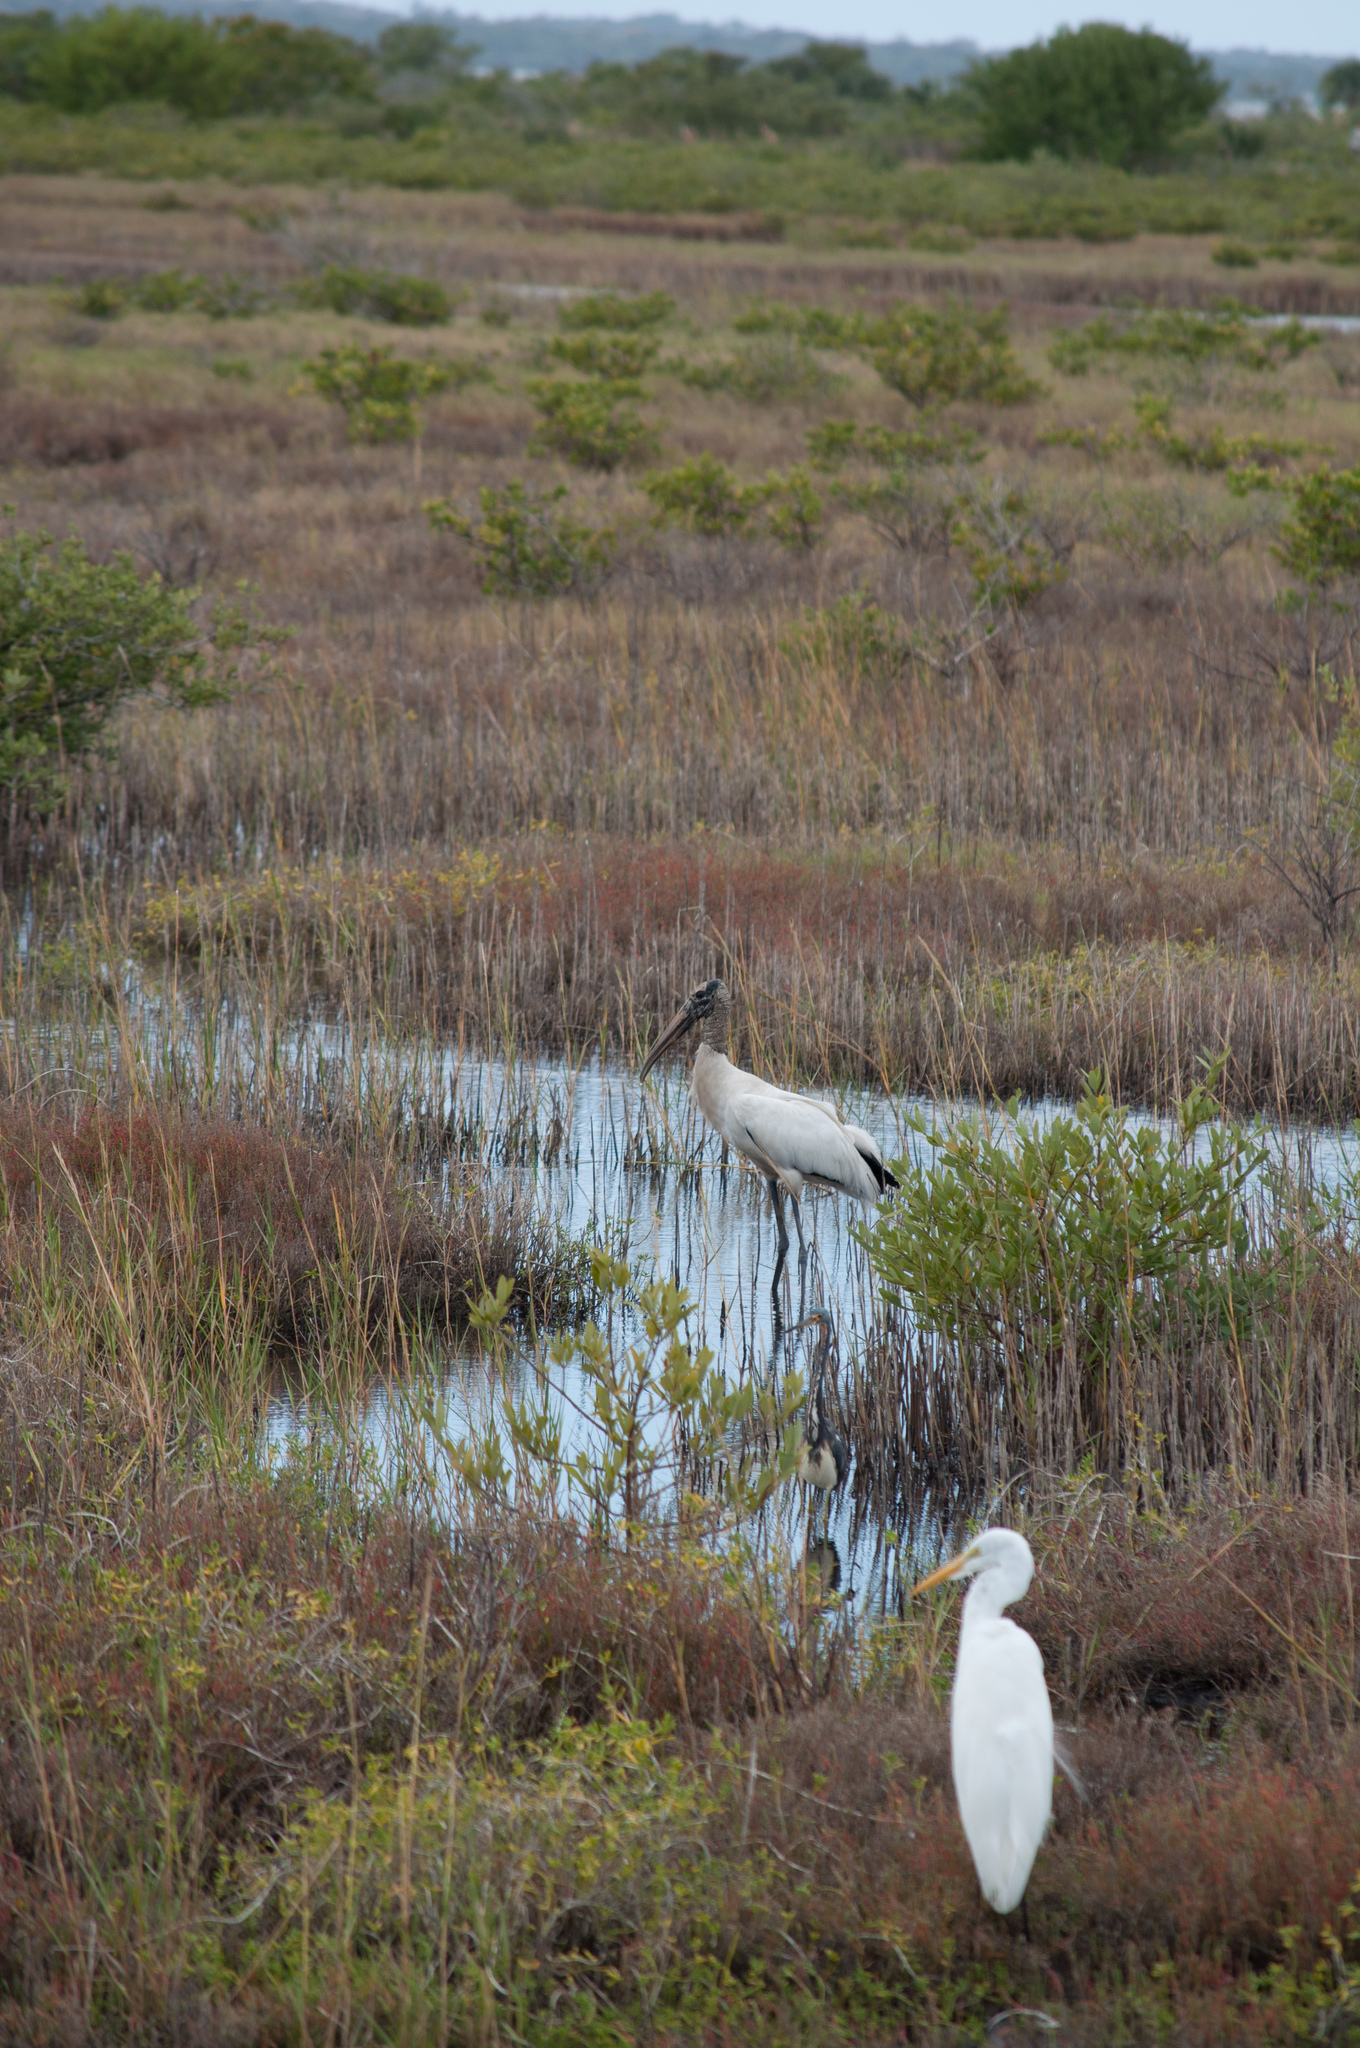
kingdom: Animalia
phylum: Chordata
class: Aves
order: Ciconiiformes
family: Ciconiidae
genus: Mycteria
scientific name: Mycteria americana
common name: Wood stork
